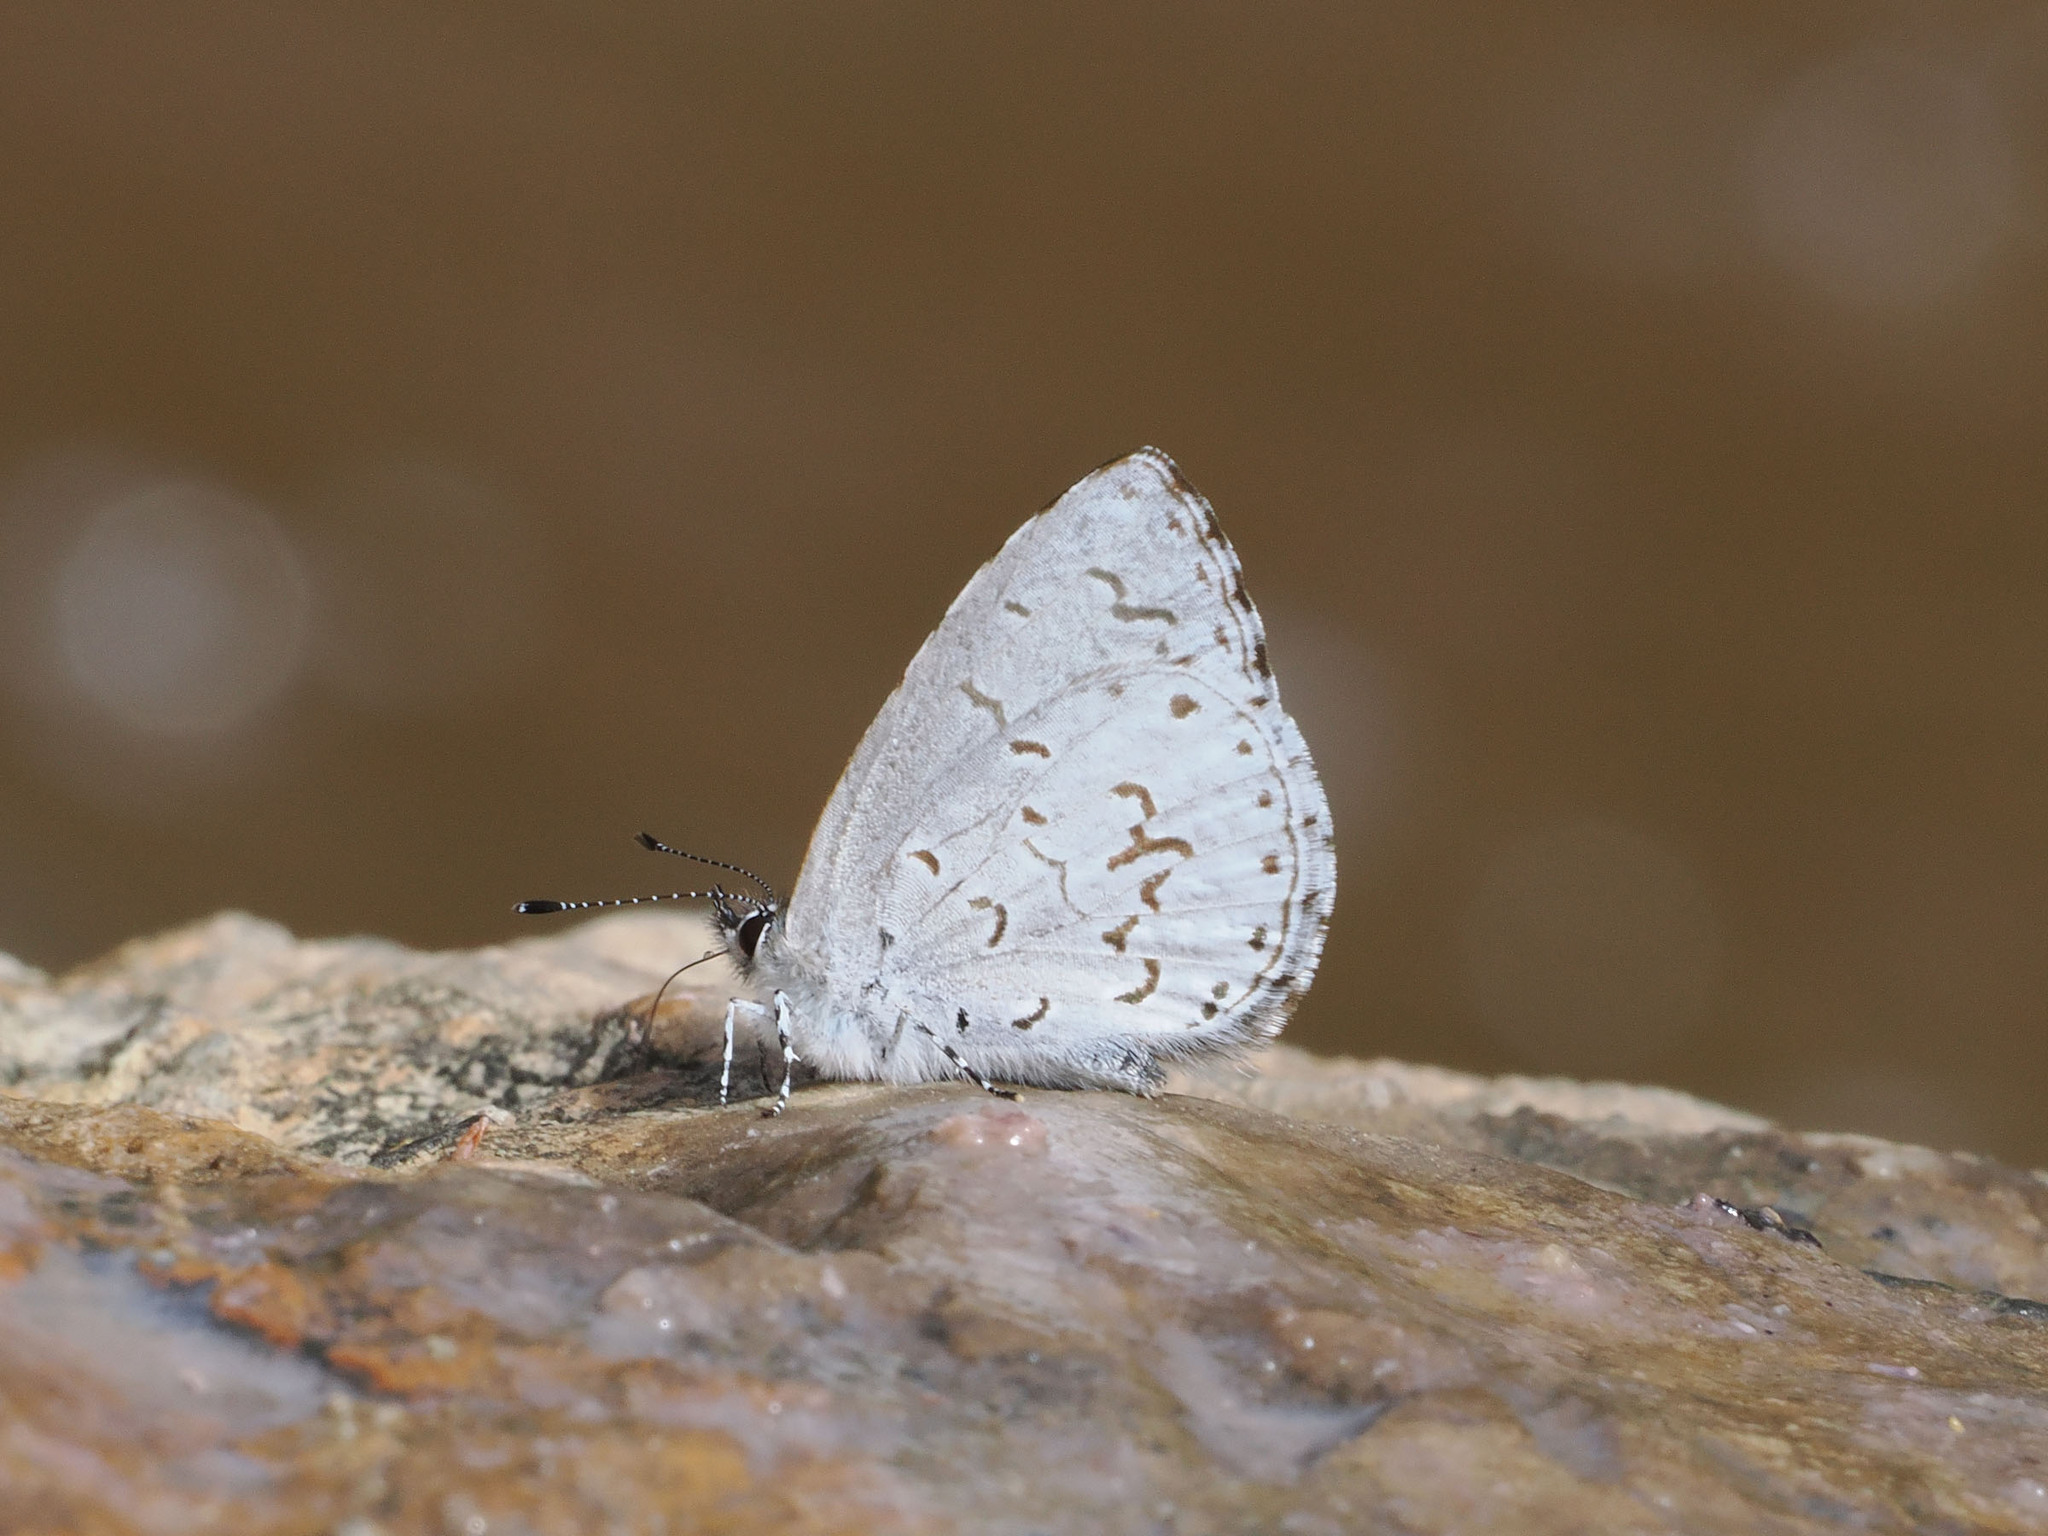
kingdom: Animalia
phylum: Arthropoda
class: Insecta
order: Lepidoptera
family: Lycaenidae
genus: Udara
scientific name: Udara drucei
